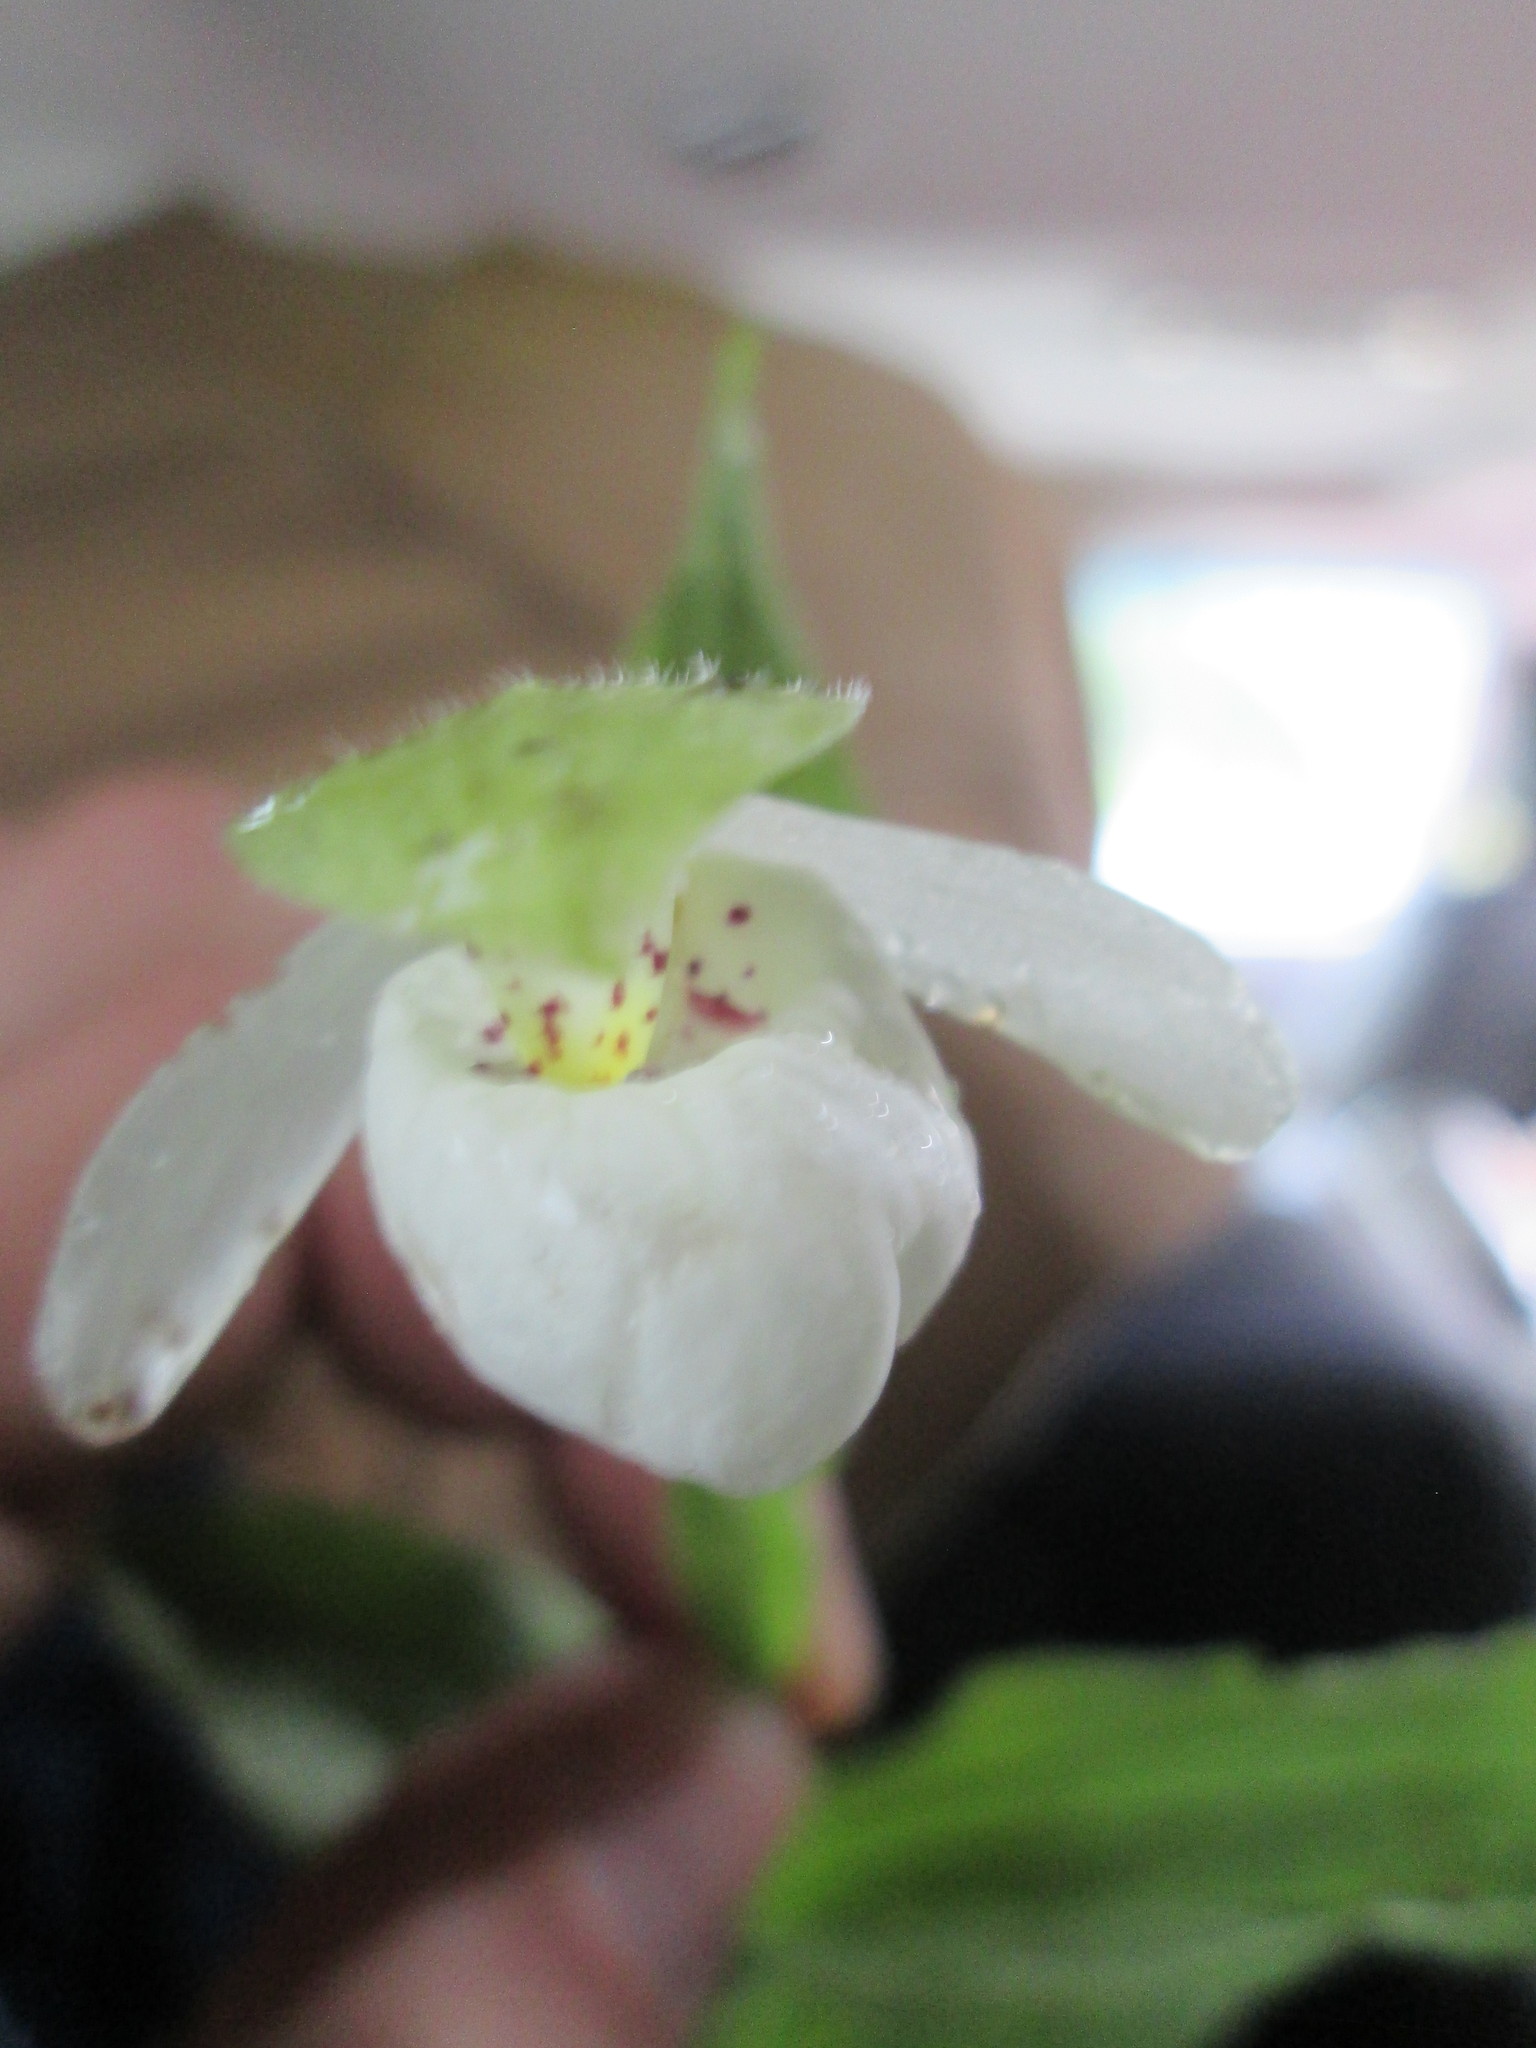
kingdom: Plantae
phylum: Tracheophyta
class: Liliopsida
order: Asparagales
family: Orchidaceae
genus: Cypripedium
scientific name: Cypripedium passerinum
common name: Sparrow's-egg lady's-slipper
